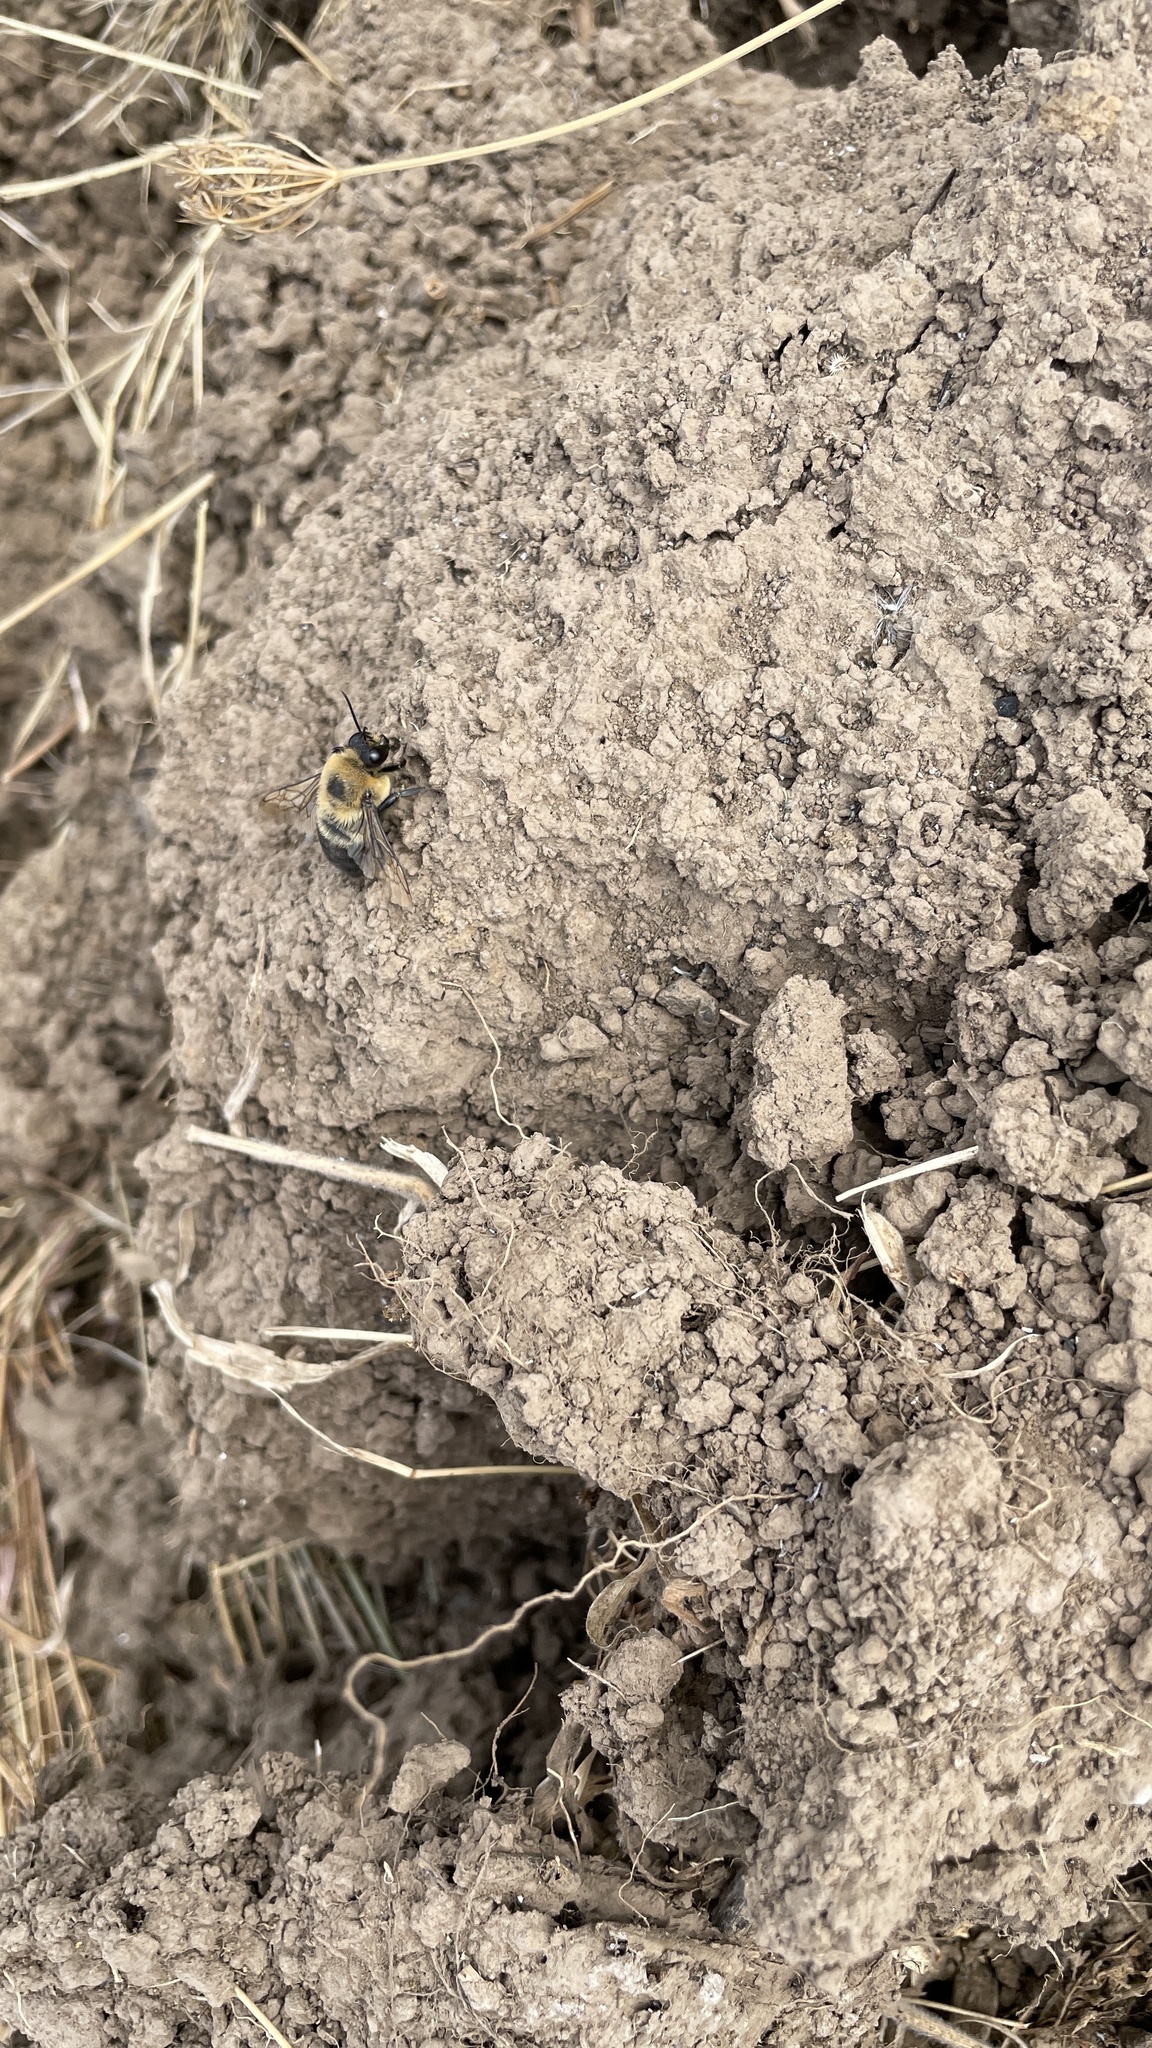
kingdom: Animalia
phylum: Arthropoda
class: Insecta
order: Hymenoptera
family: Apidae
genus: Bombus
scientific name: Bombus griseocollis
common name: Brown-belted bumble bee
